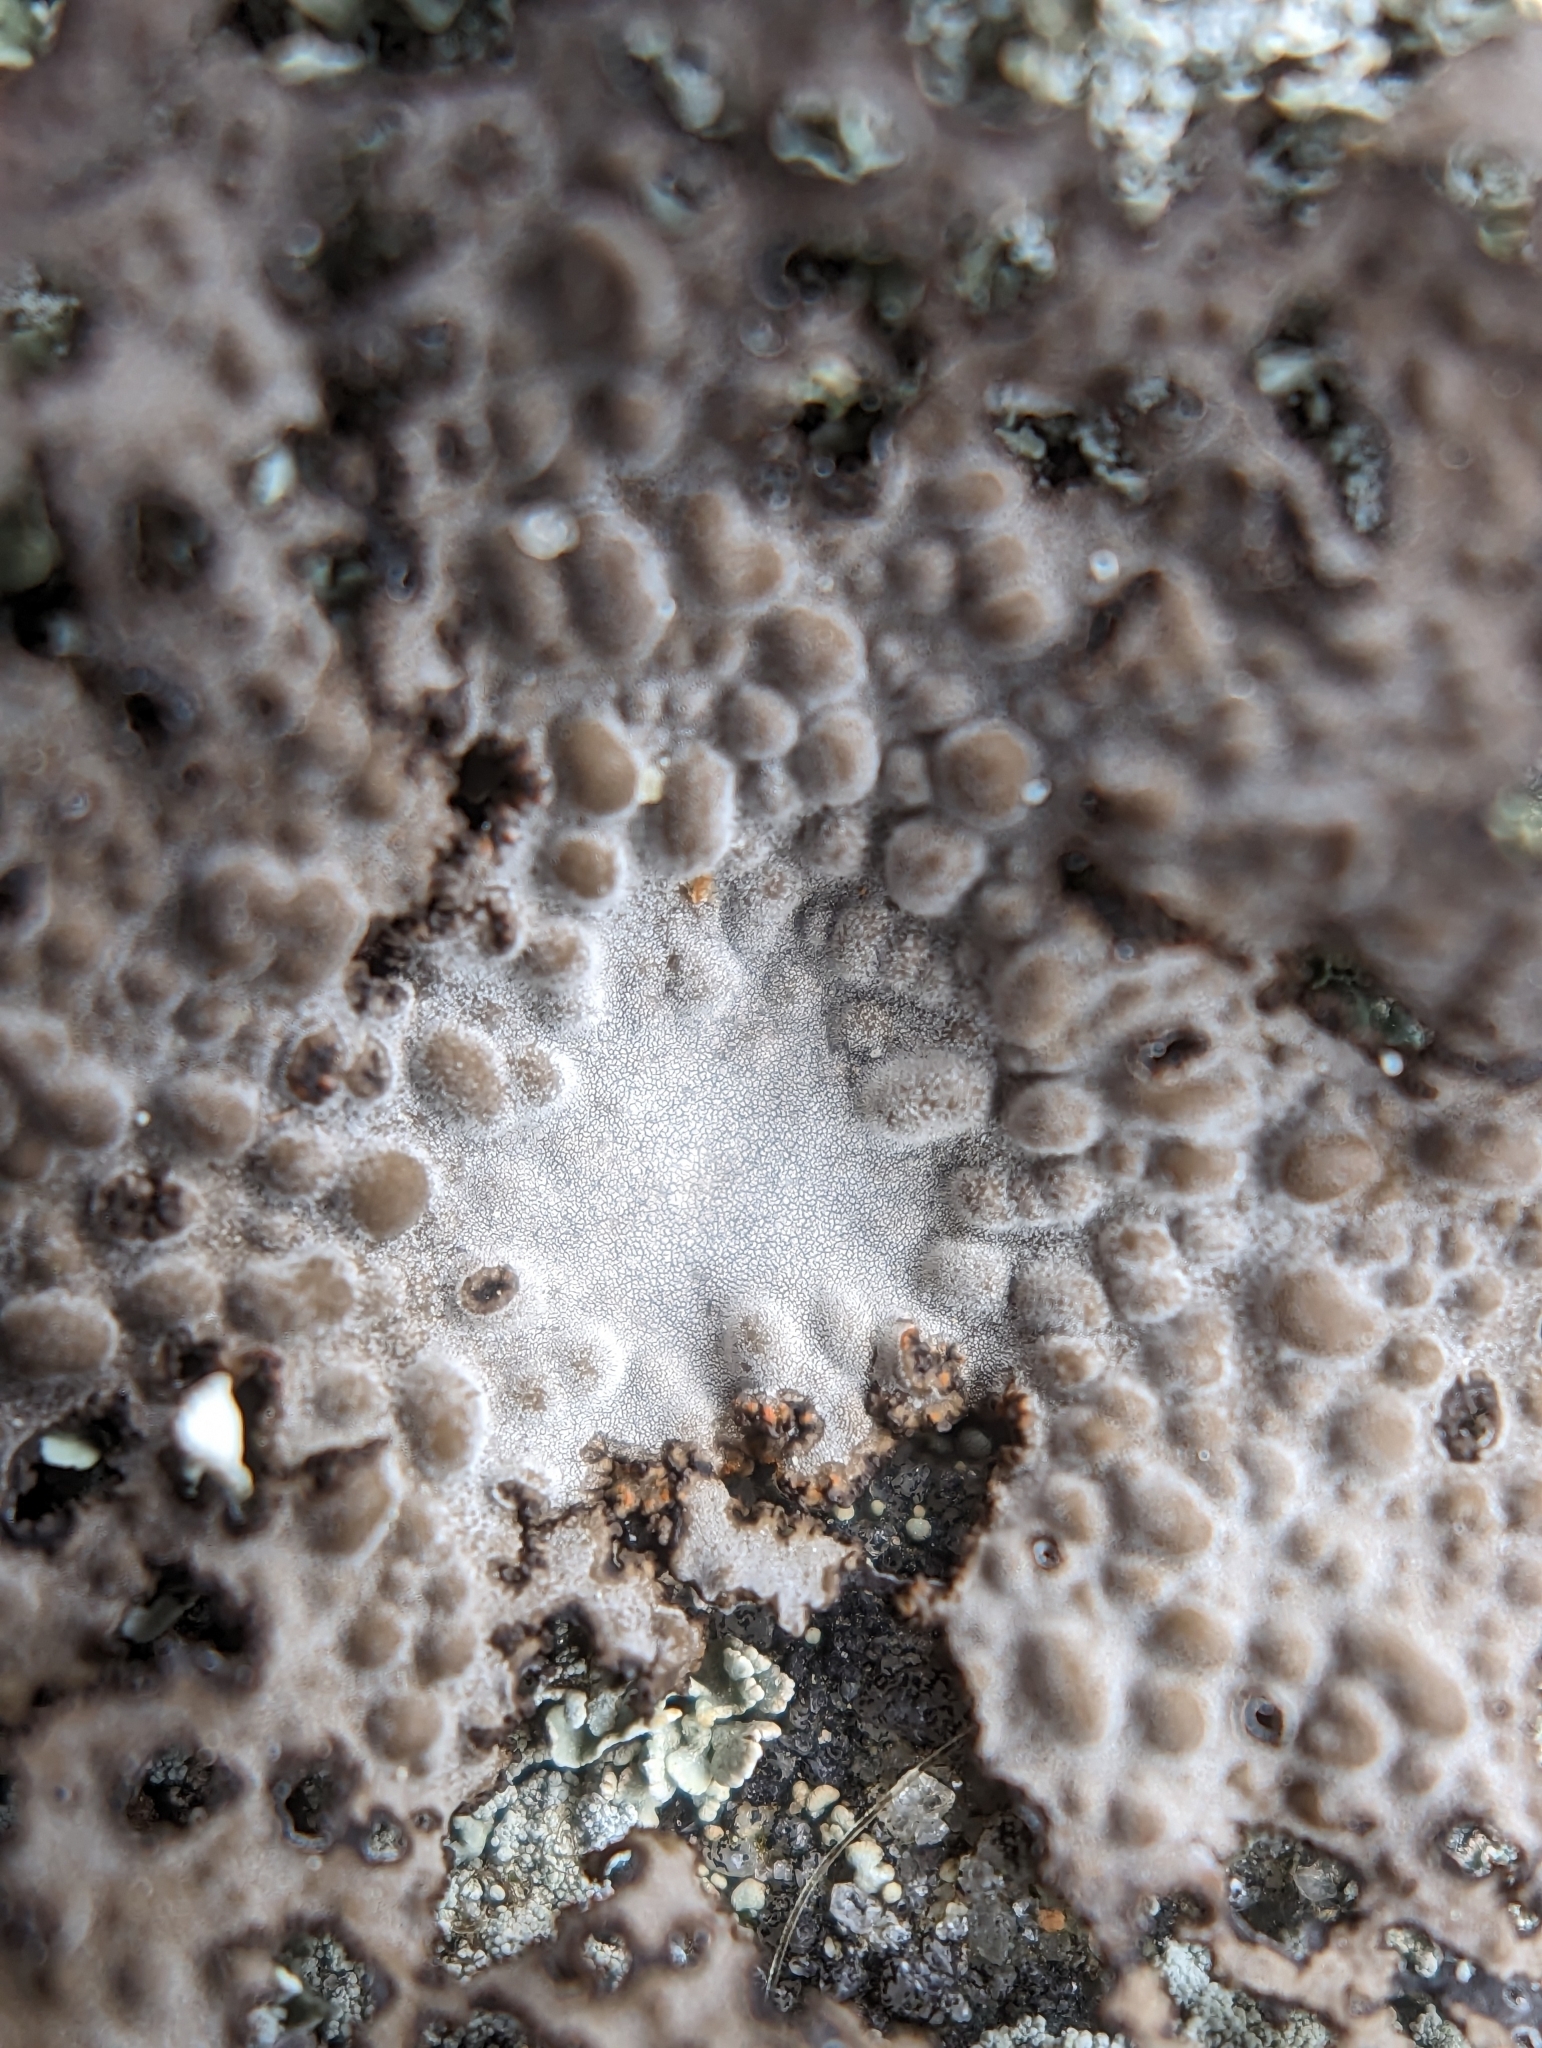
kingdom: Fungi
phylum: Ascomycota
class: Lecanoromycetes
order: Umbilicariales
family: Umbilicariaceae
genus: Lasallia
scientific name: Lasallia papulosa
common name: Common toadskin lichen
